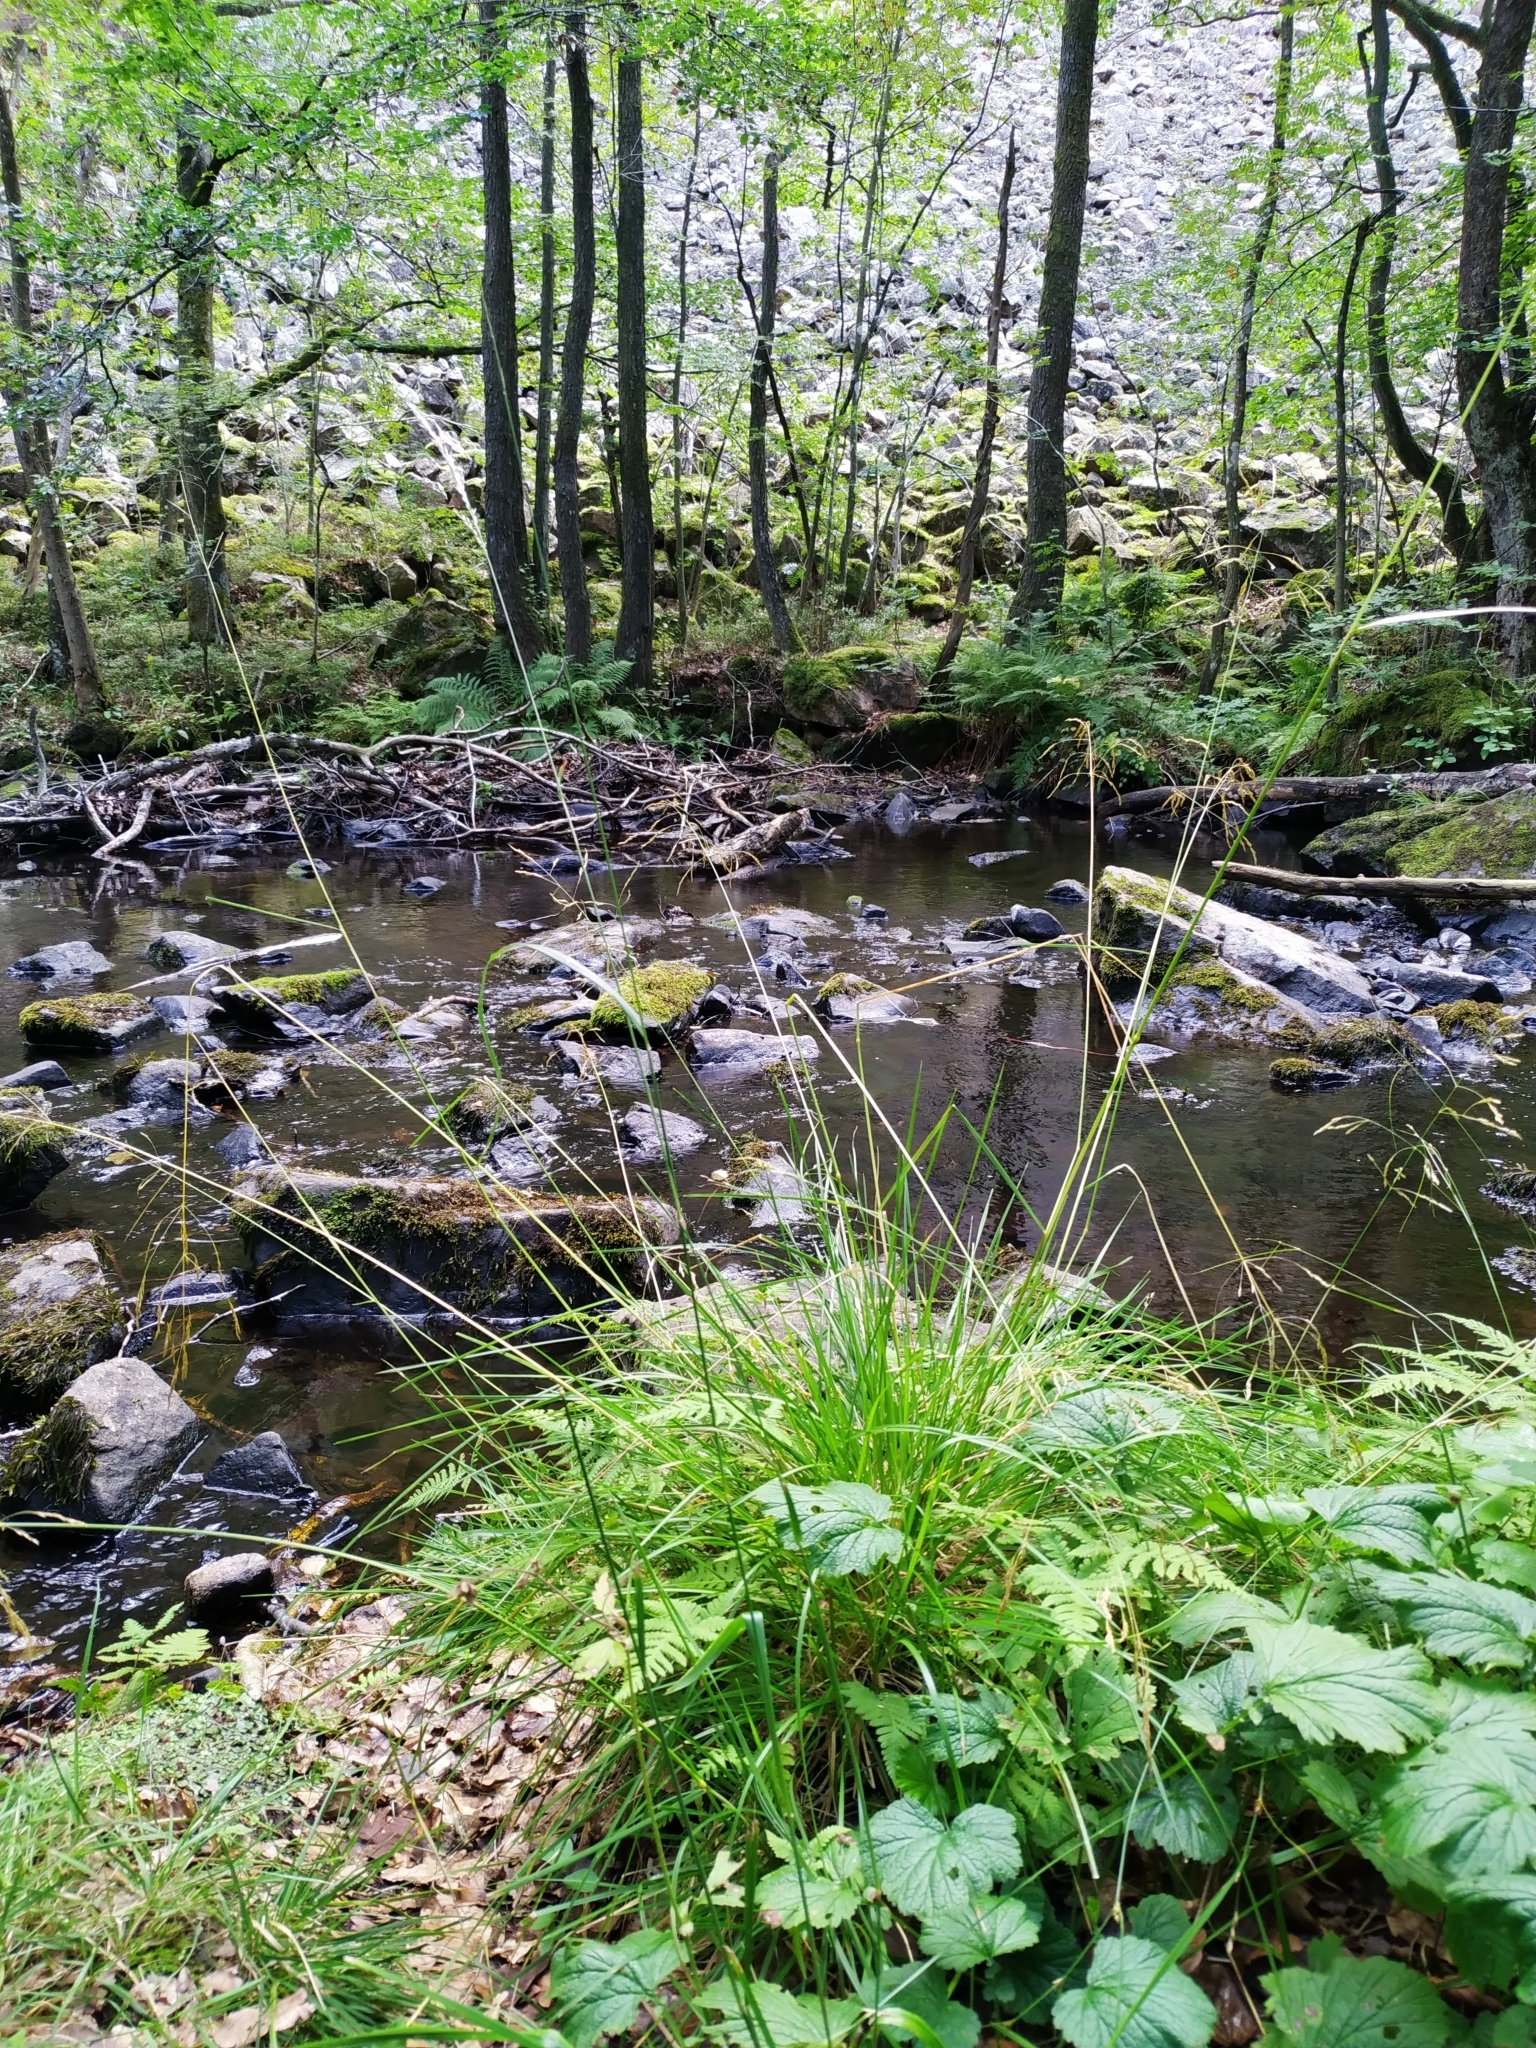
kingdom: Plantae
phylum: Tracheophyta
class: Liliopsida
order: Poales
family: Poaceae
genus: Deschampsia
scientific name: Deschampsia cespitosa
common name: Tufted hair-grass
